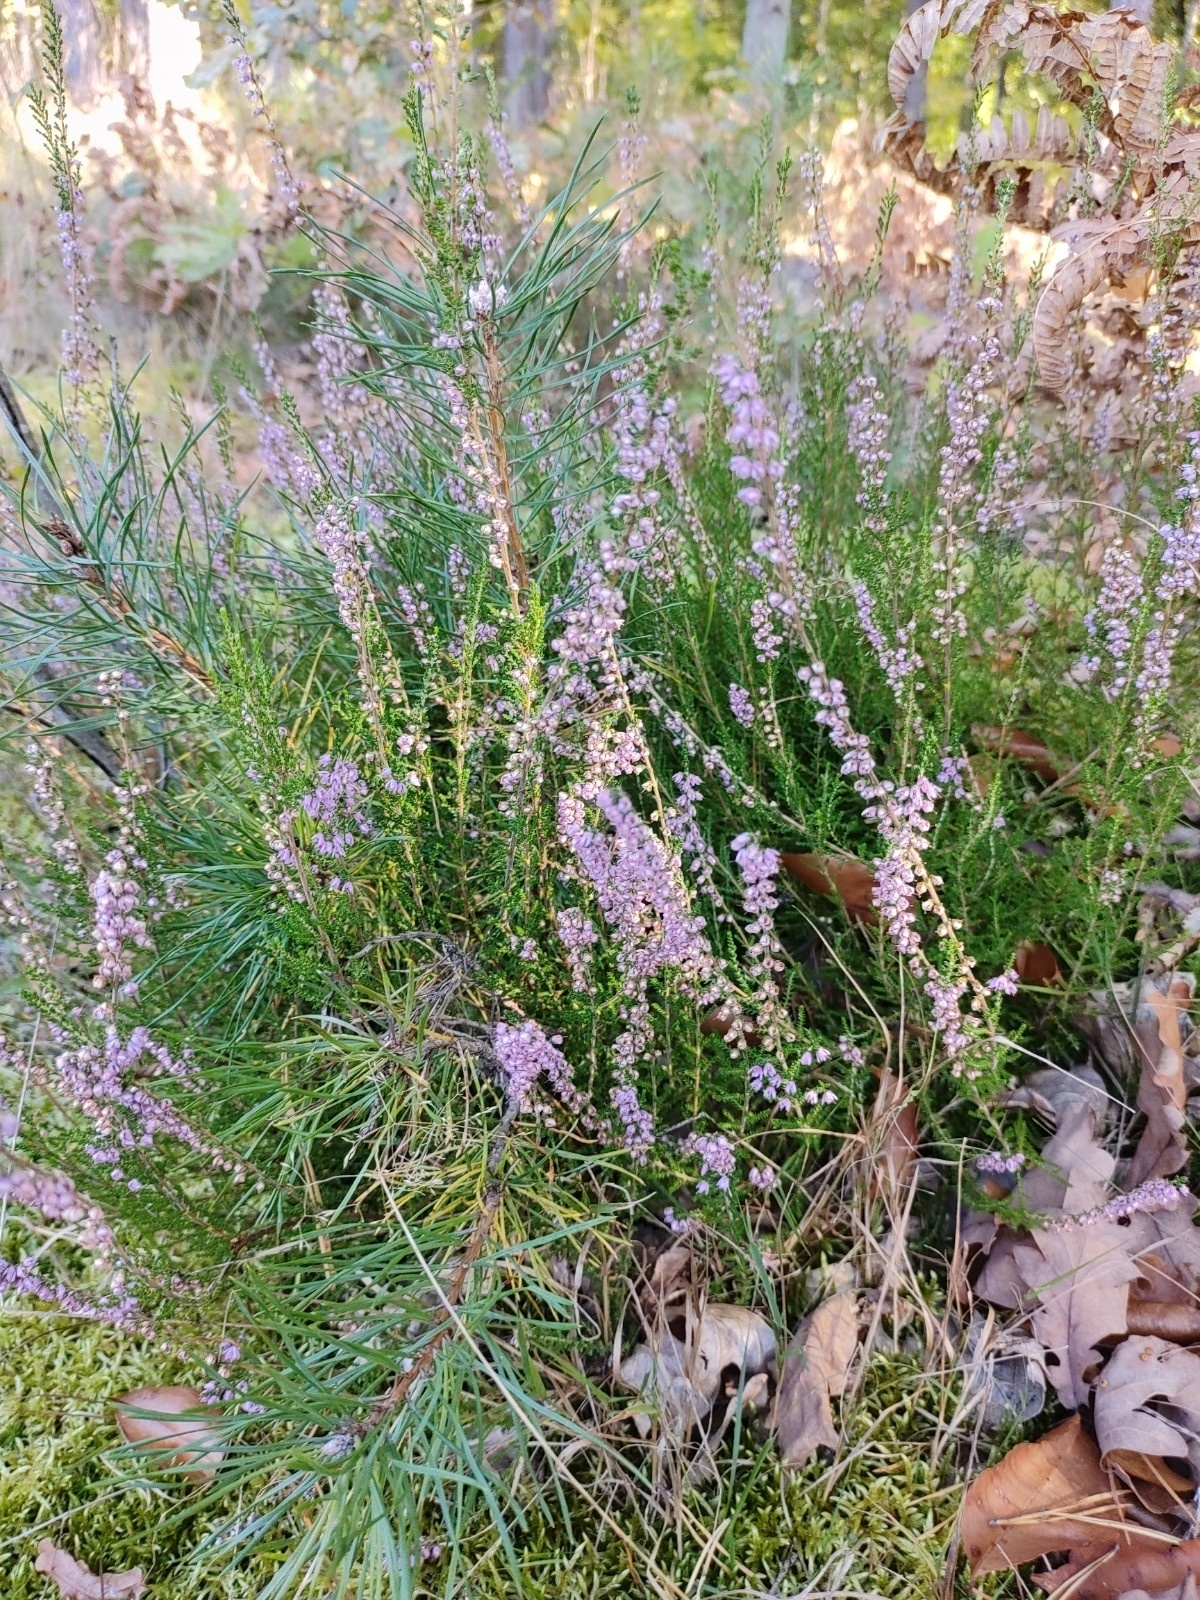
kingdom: Plantae
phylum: Tracheophyta
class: Magnoliopsida
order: Ericales
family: Ericaceae
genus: Calluna
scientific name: Calluna vulgaris
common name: Heather
